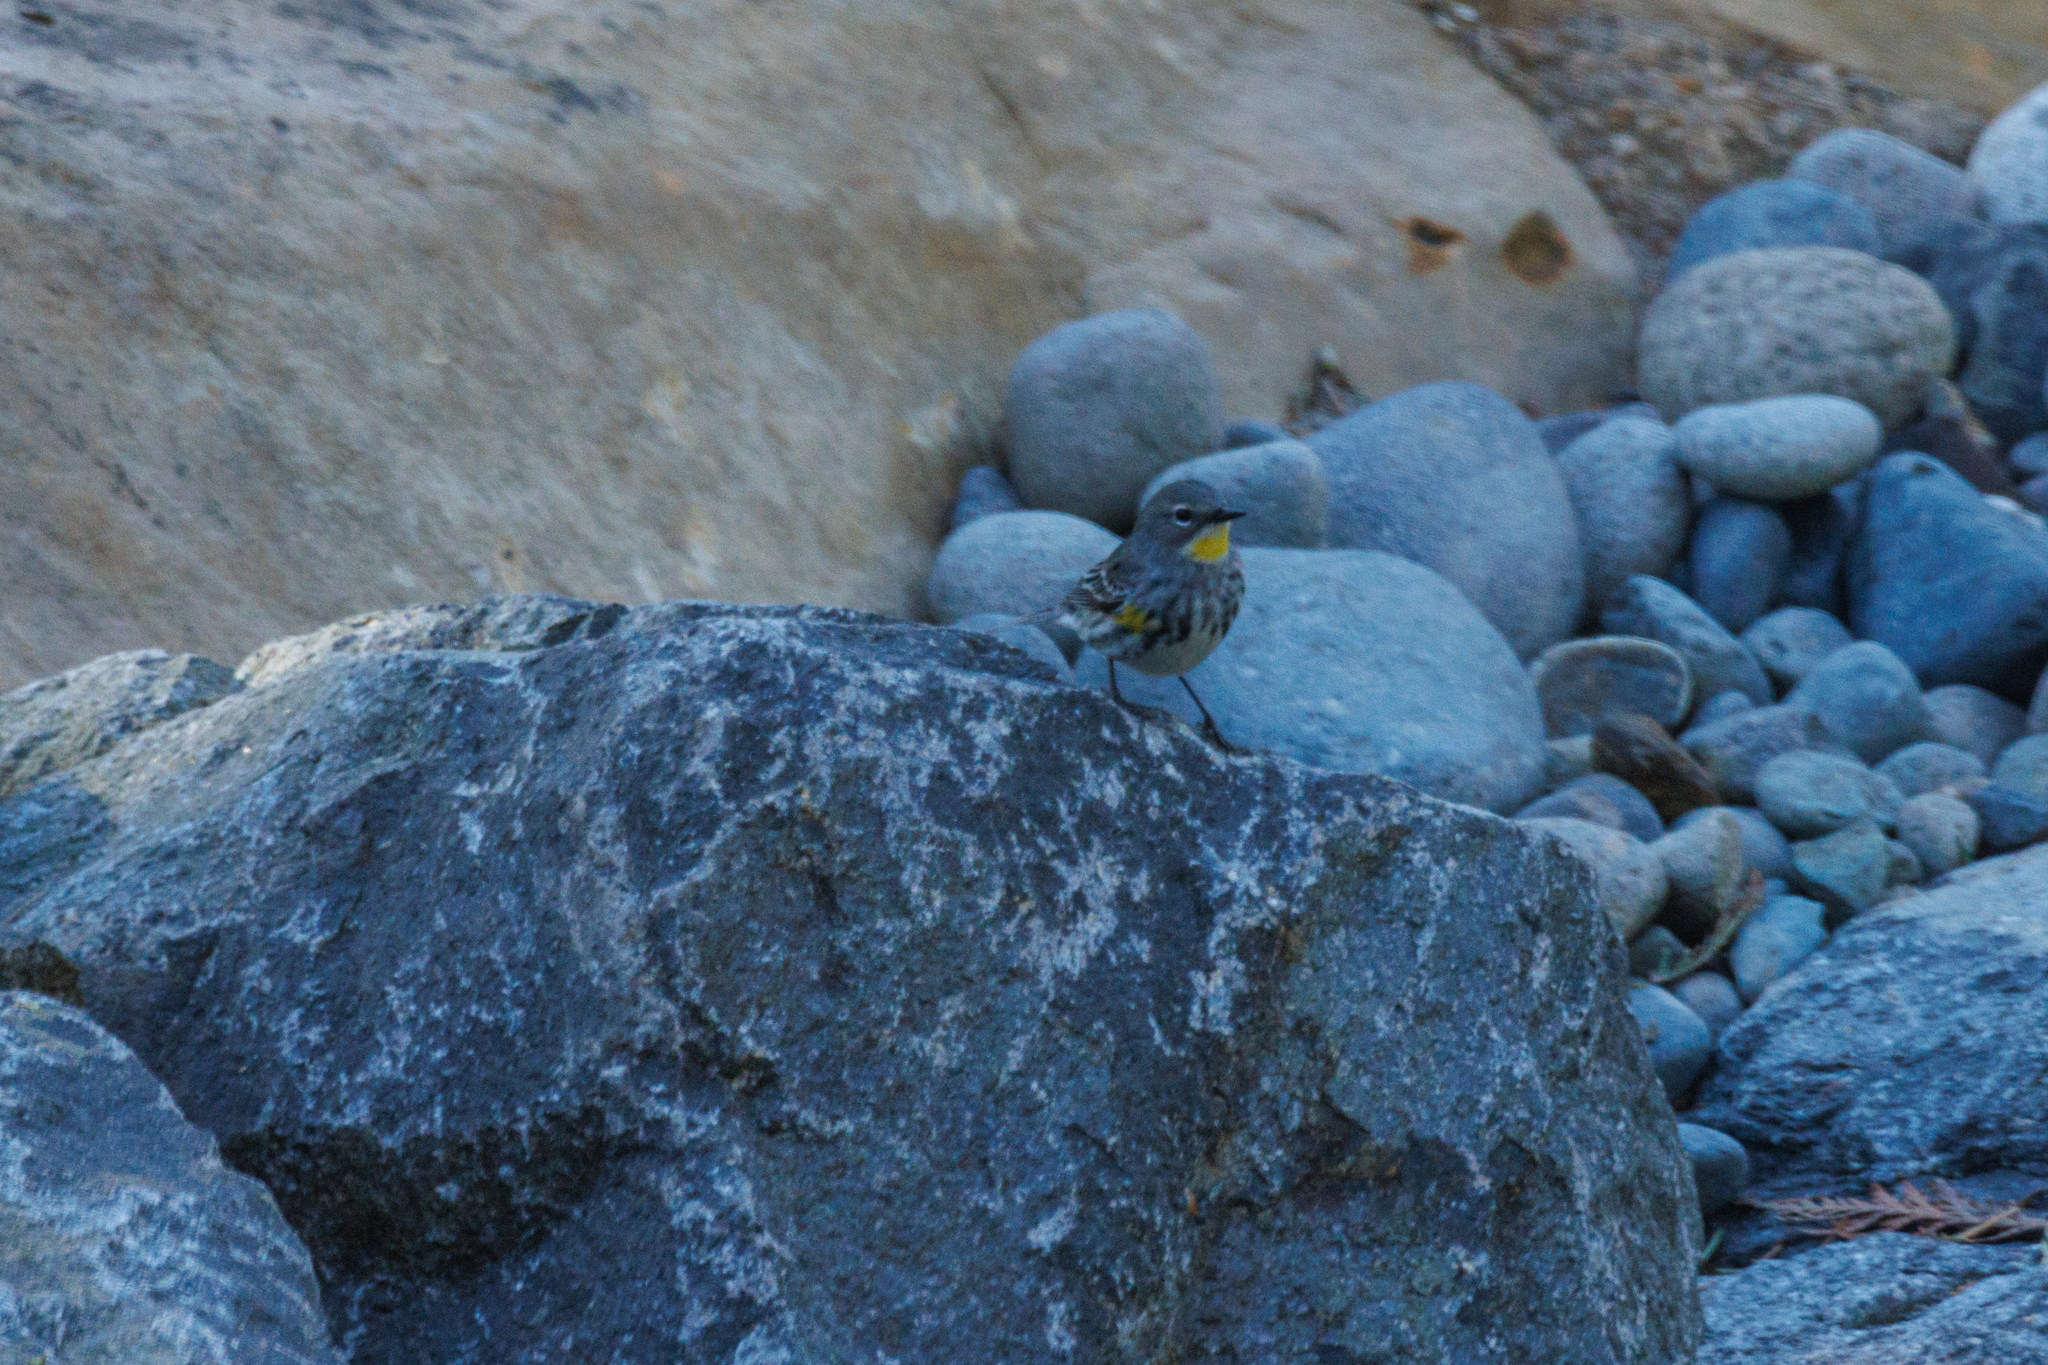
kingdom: Animalia
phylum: Chordata
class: Aves
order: Passeriformes
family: Parulidae
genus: Setophaga
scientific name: Setophaga coronata
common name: Myrtle warbler
